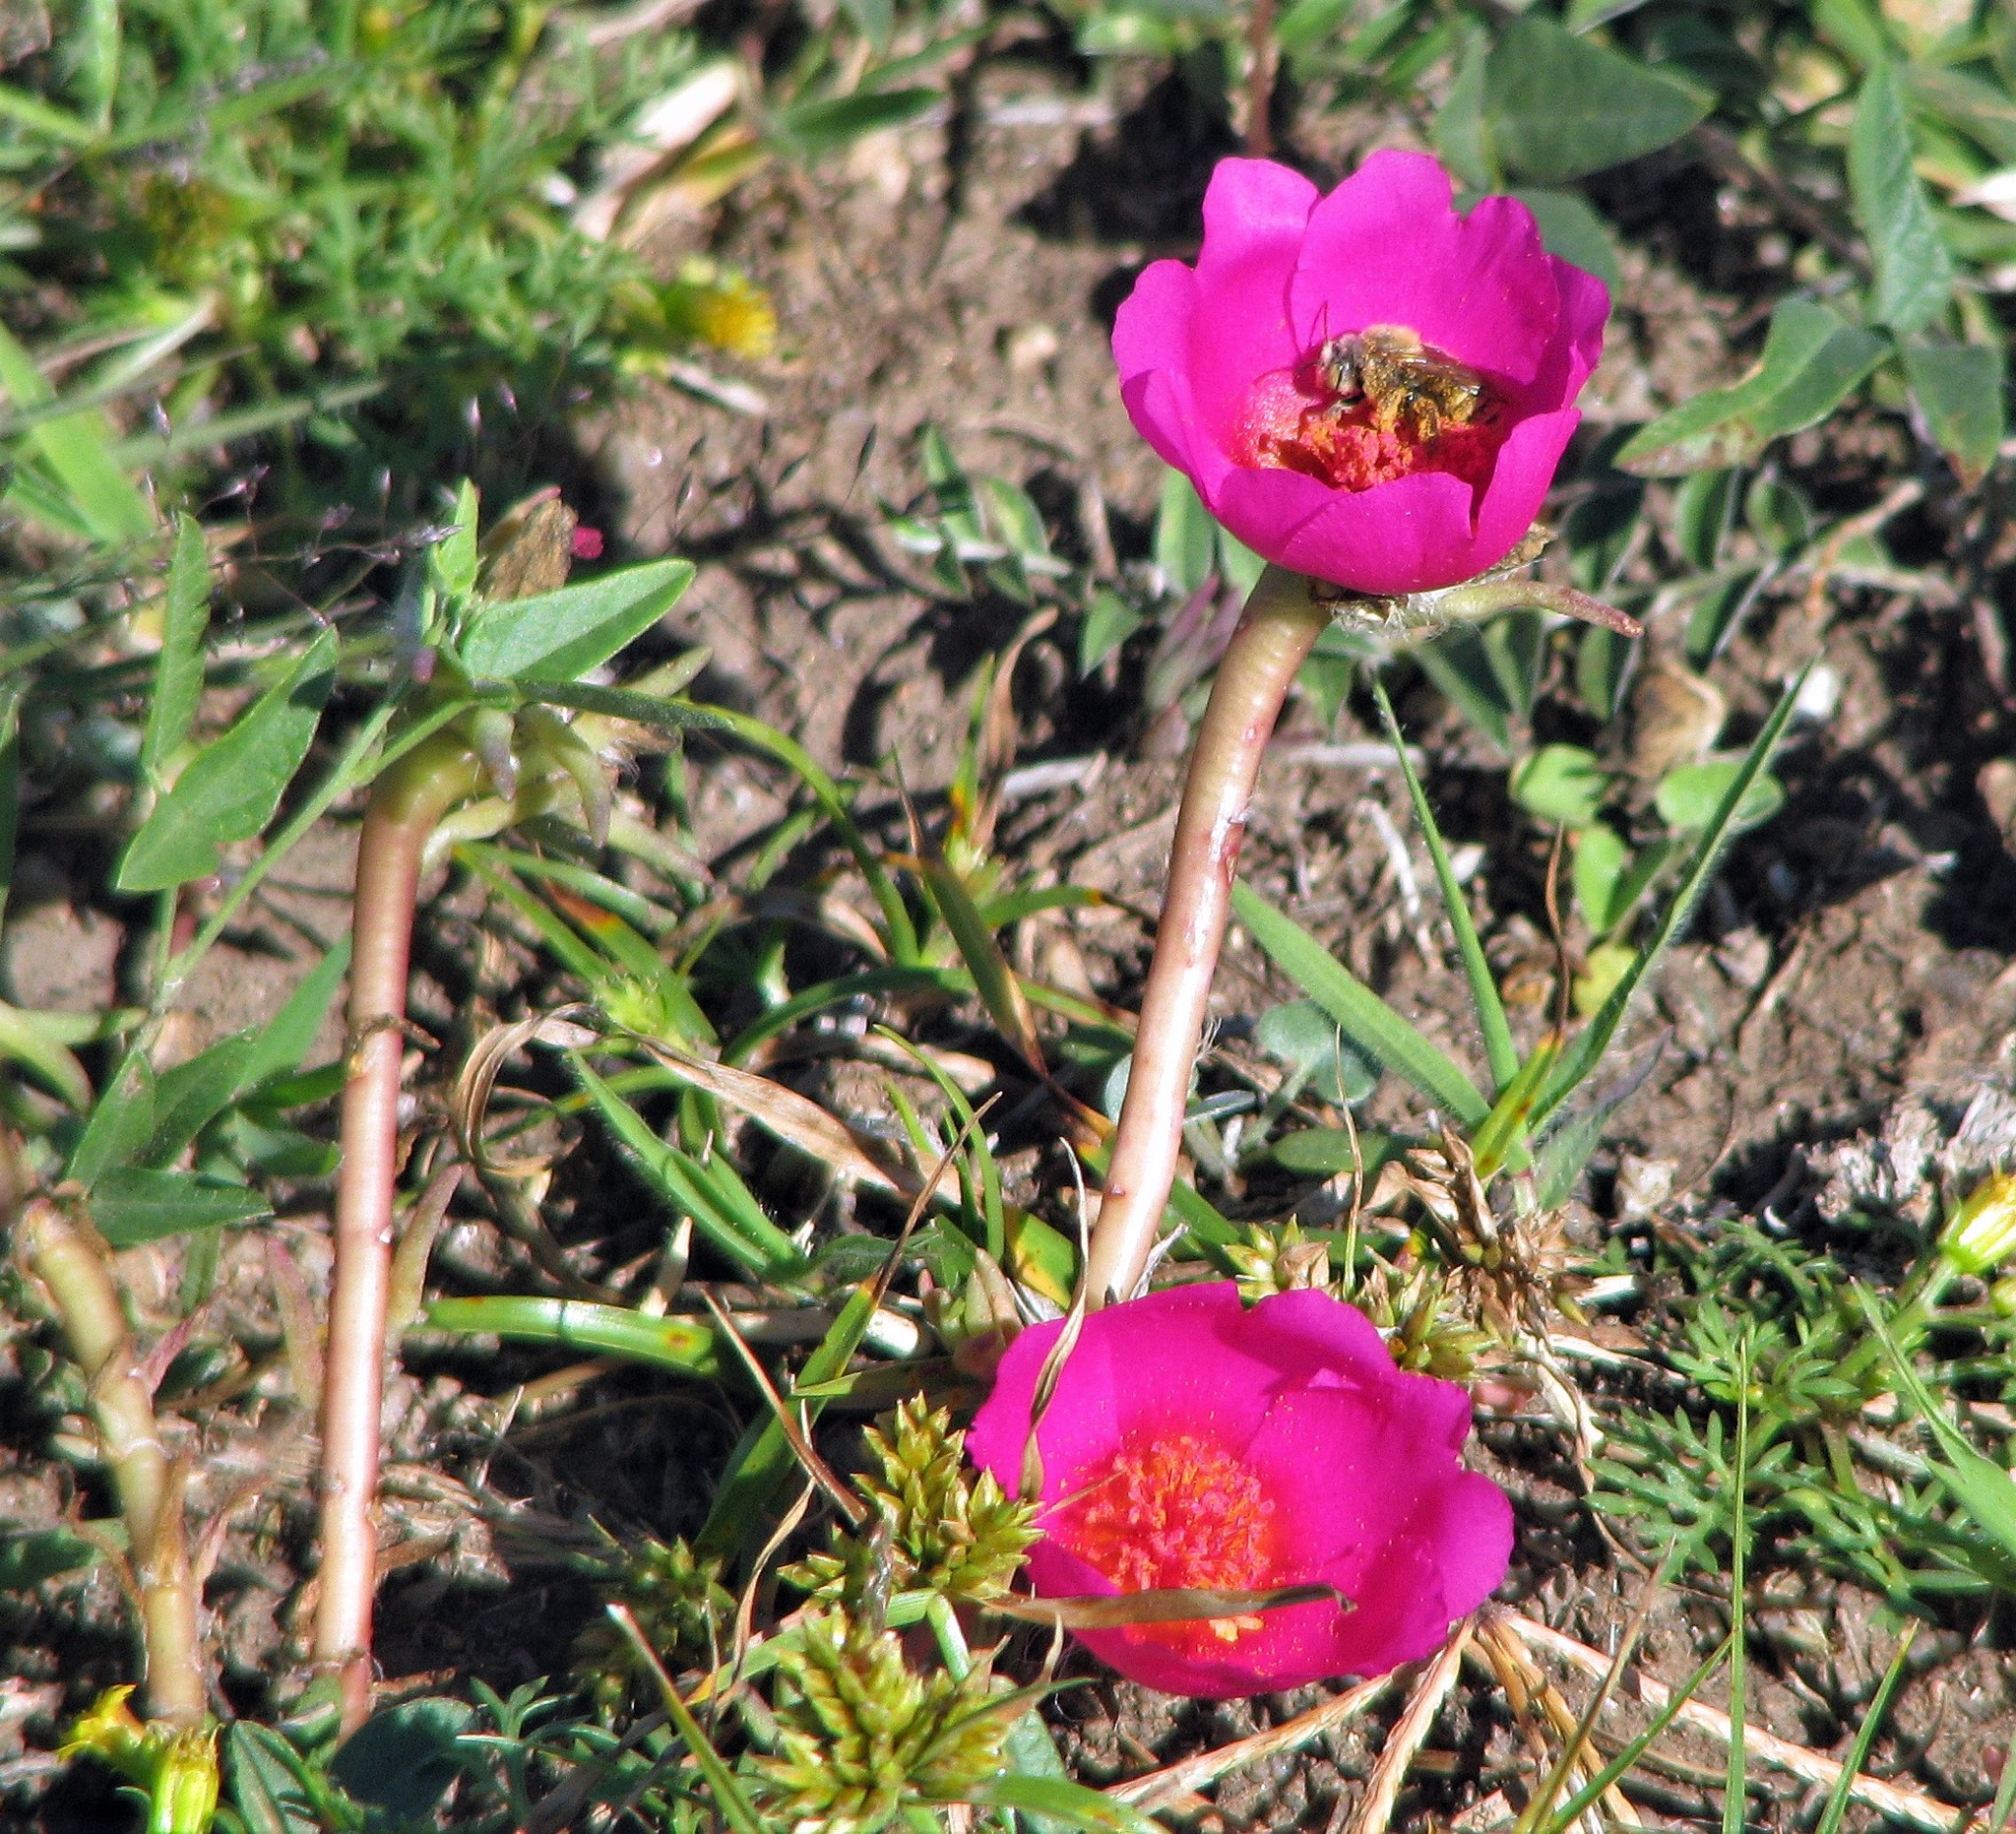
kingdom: Plantae
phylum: Tracheophyta
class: Magnoliopsida
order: Caryophyllales
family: Portulacaceae
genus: Portulaca
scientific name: Portulaca grandiflora
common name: Moss-rose
